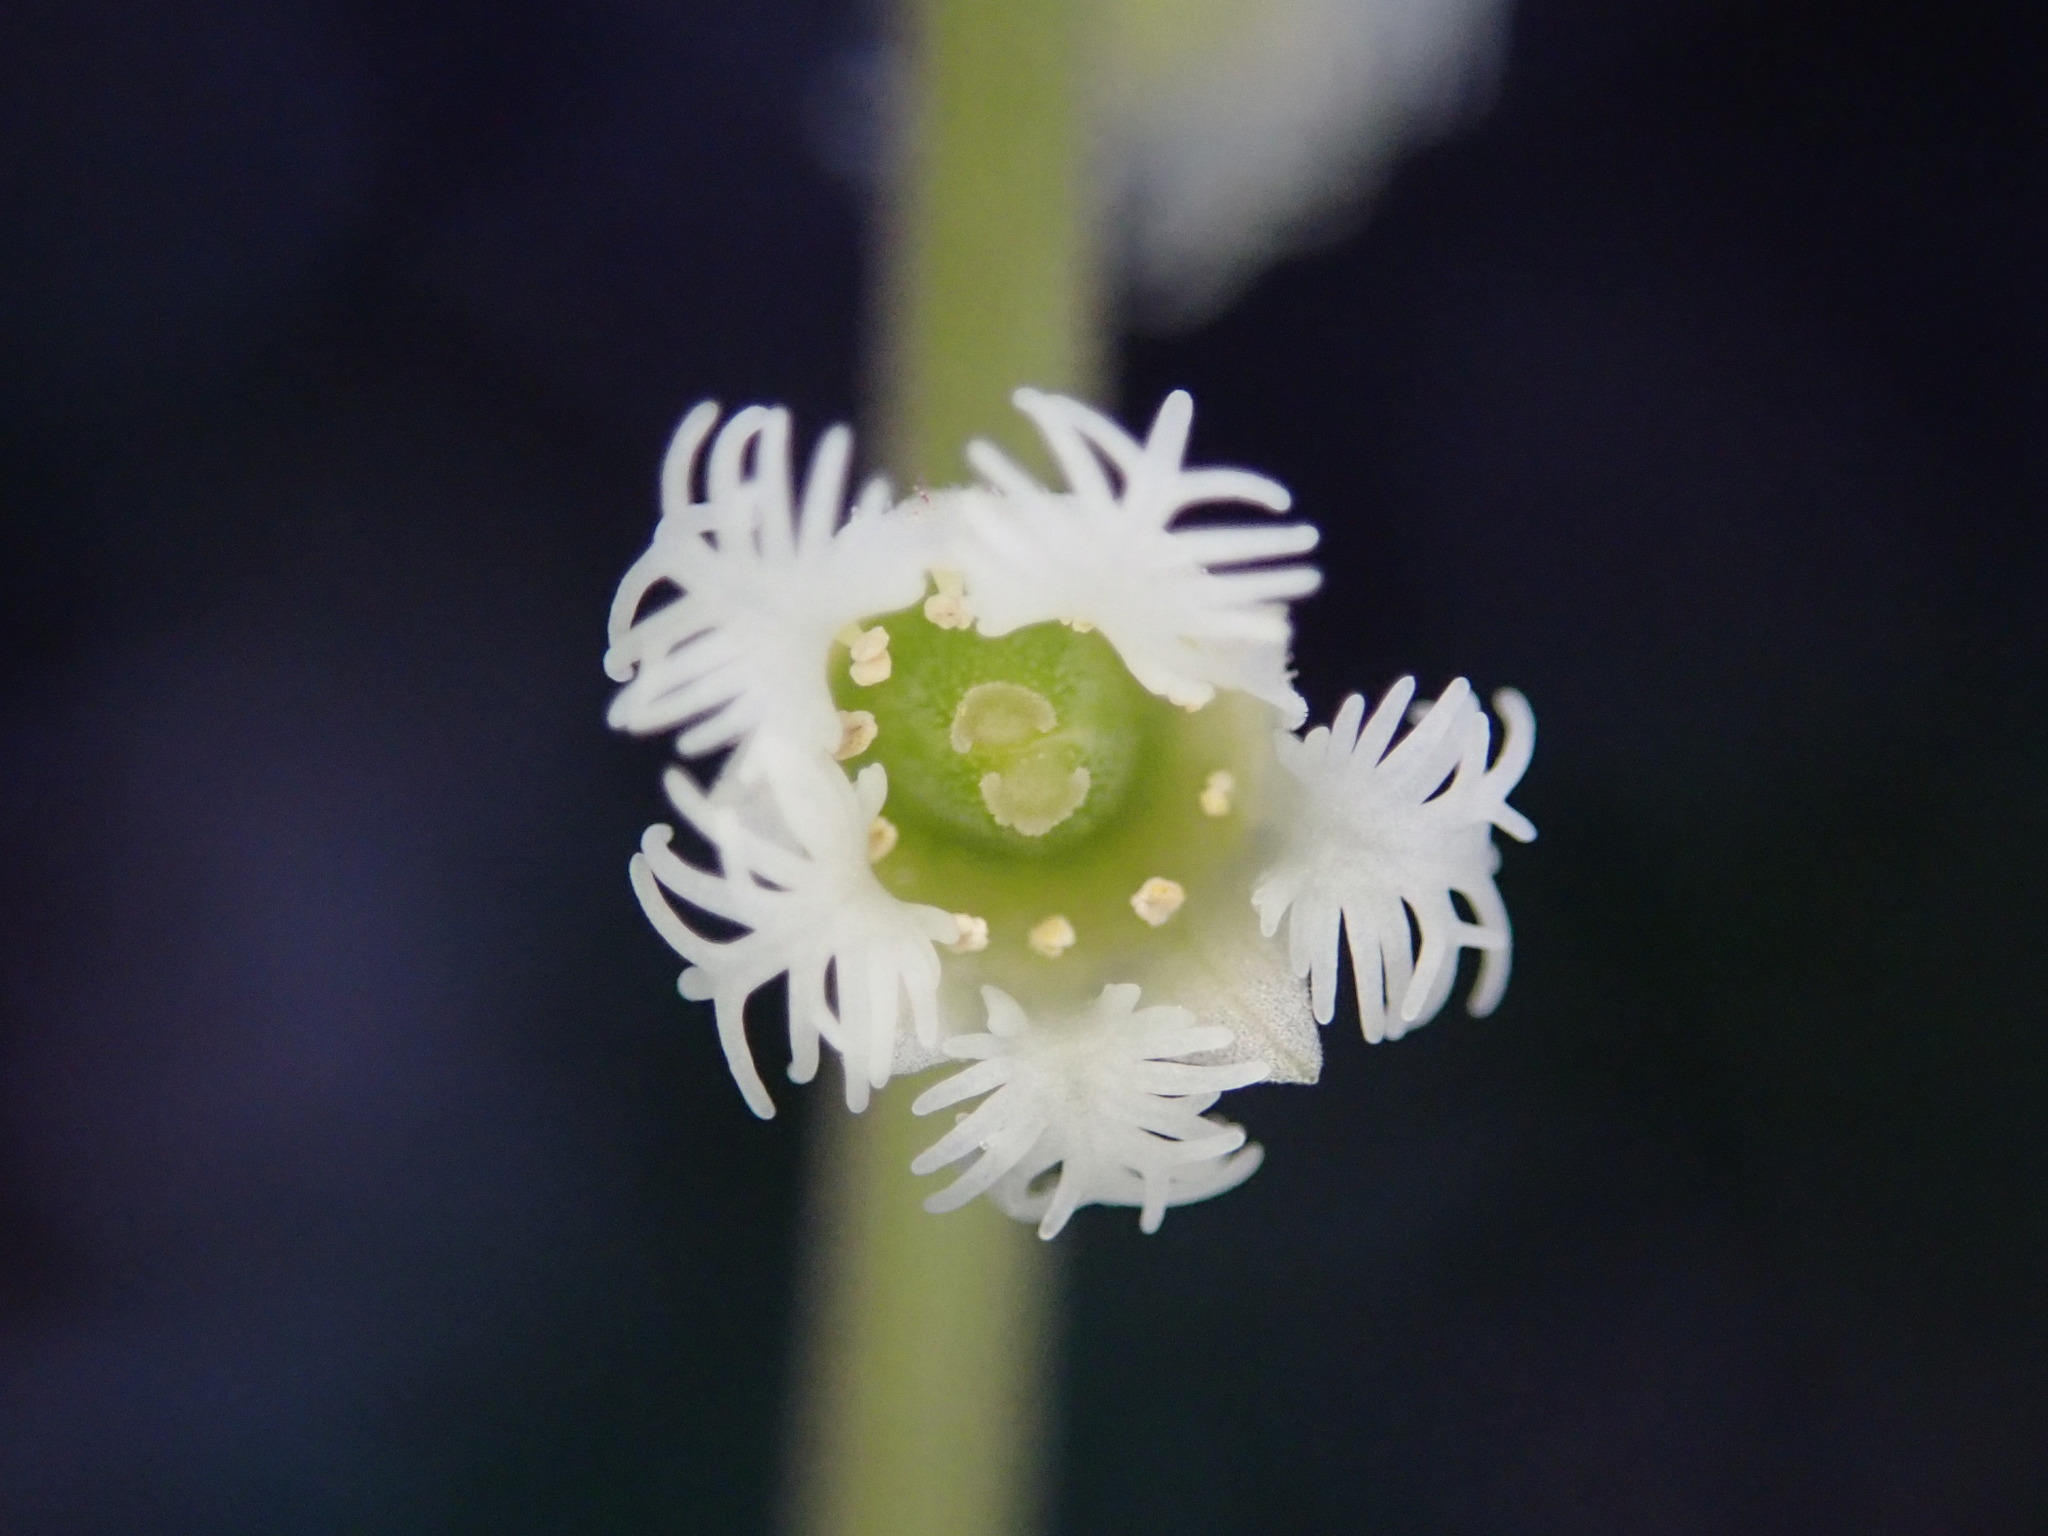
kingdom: Plantae
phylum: Tracheophyta
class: Magnoliopsida
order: Saxifragales
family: Saxifragaceae
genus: Mitella
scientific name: Mitella diphylla
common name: Coolwort
